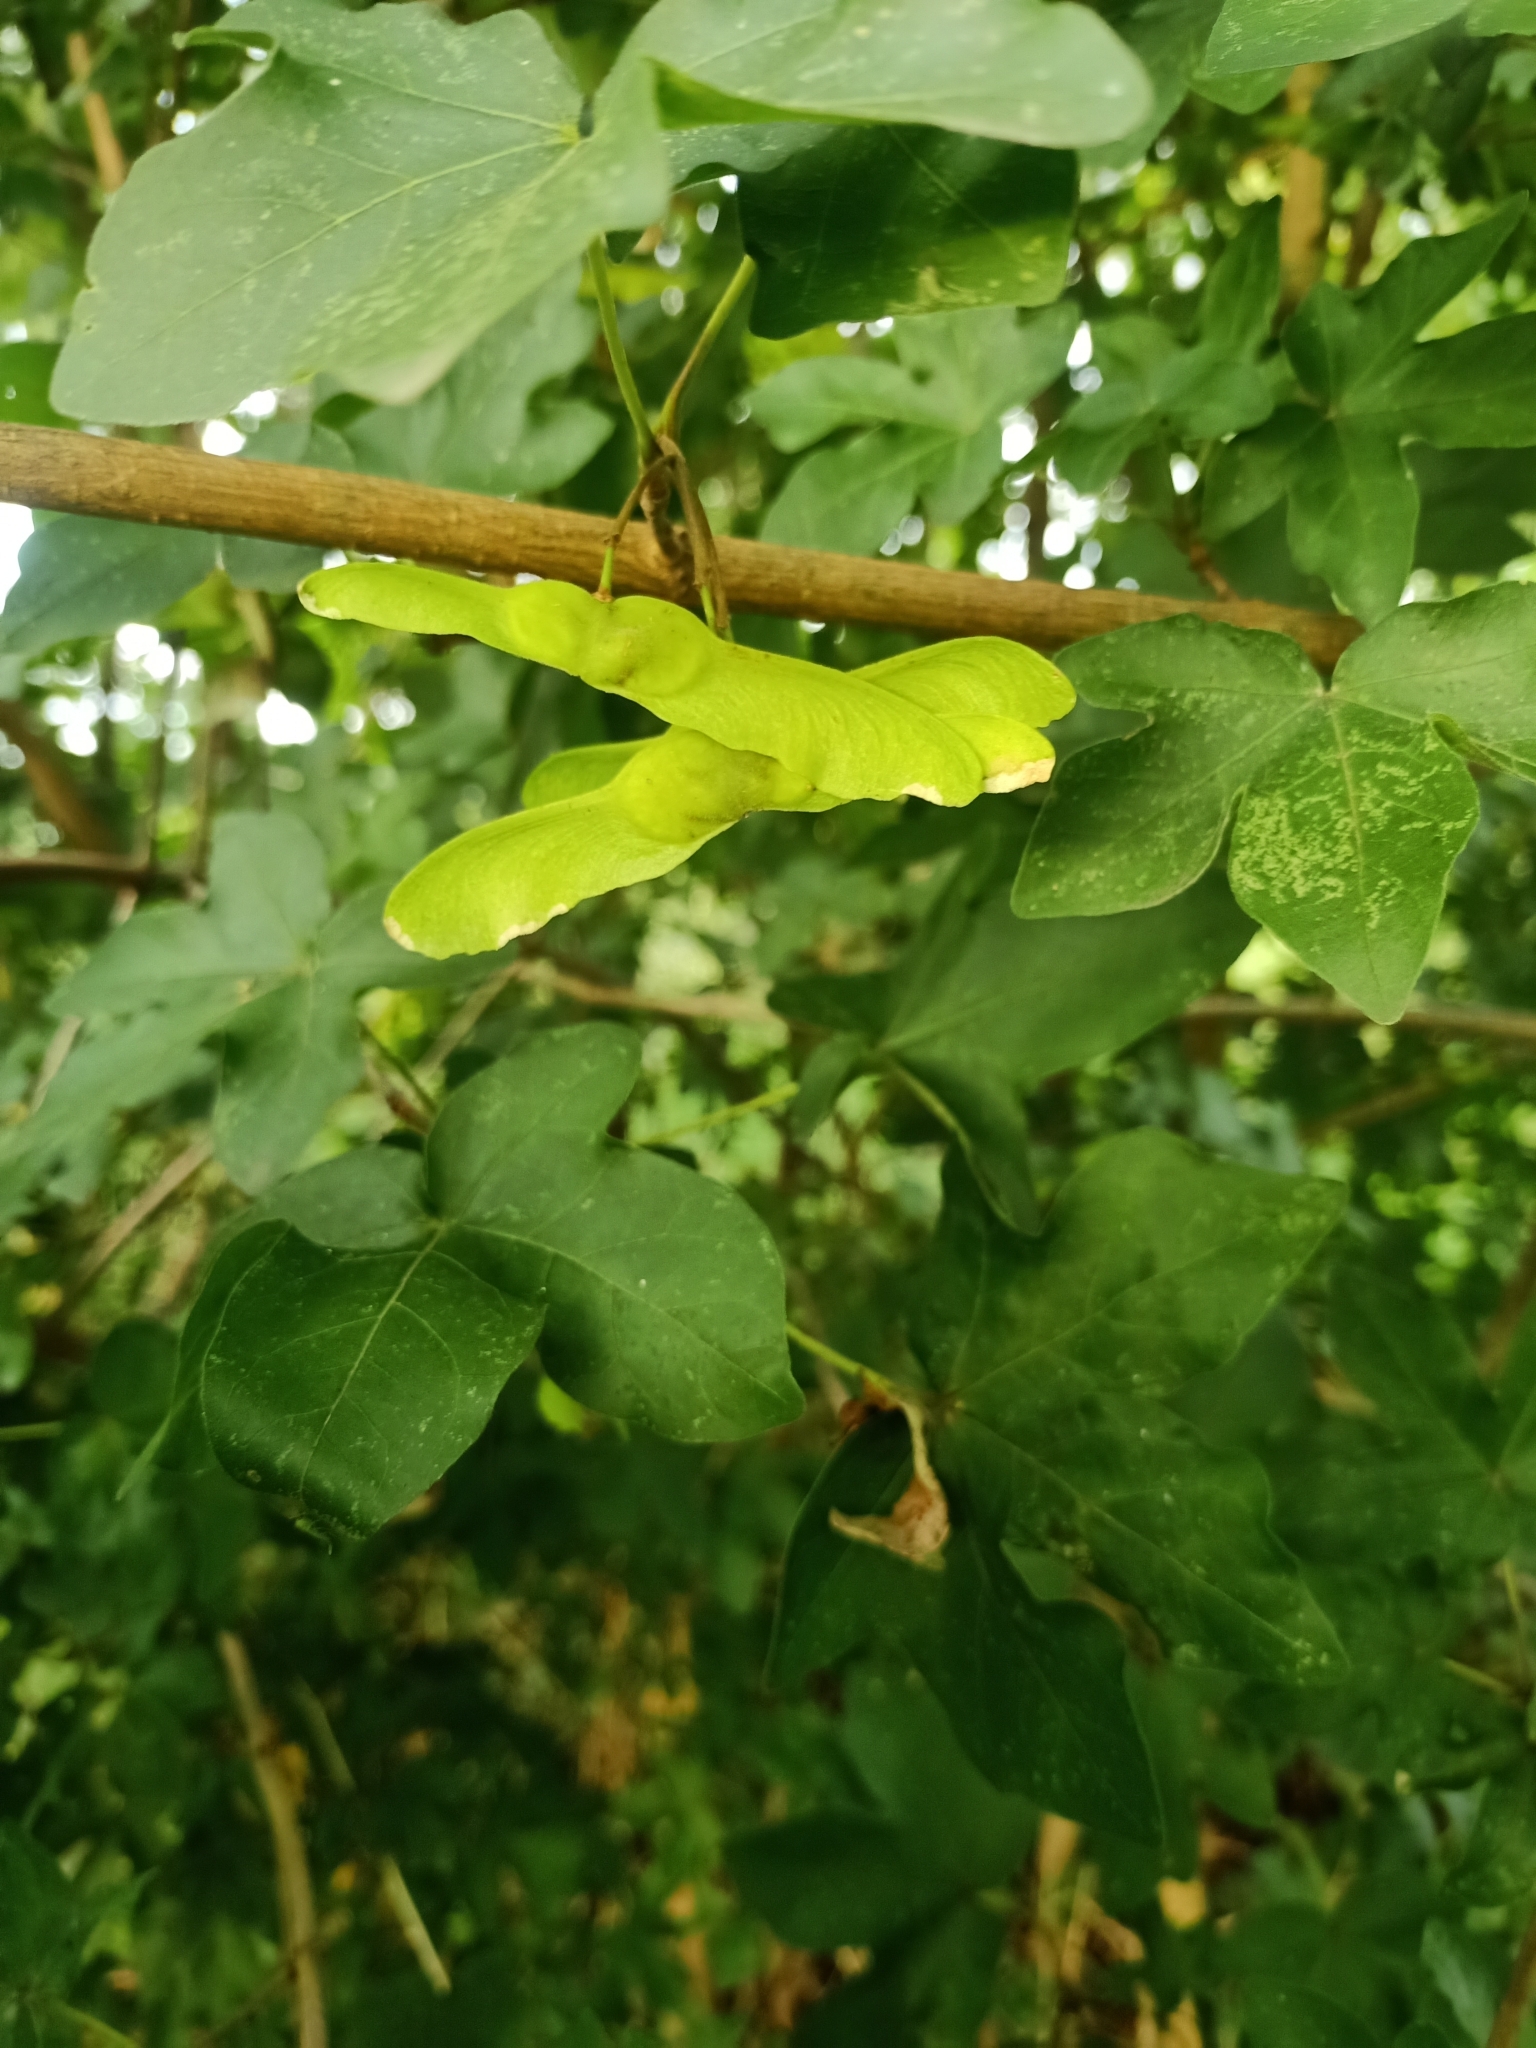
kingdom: Plantae
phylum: Tracheophyta
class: Magnoliopsida
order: Sapindales
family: Sapindaceae
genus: Acer
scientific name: Acer campestre
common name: Field maple
